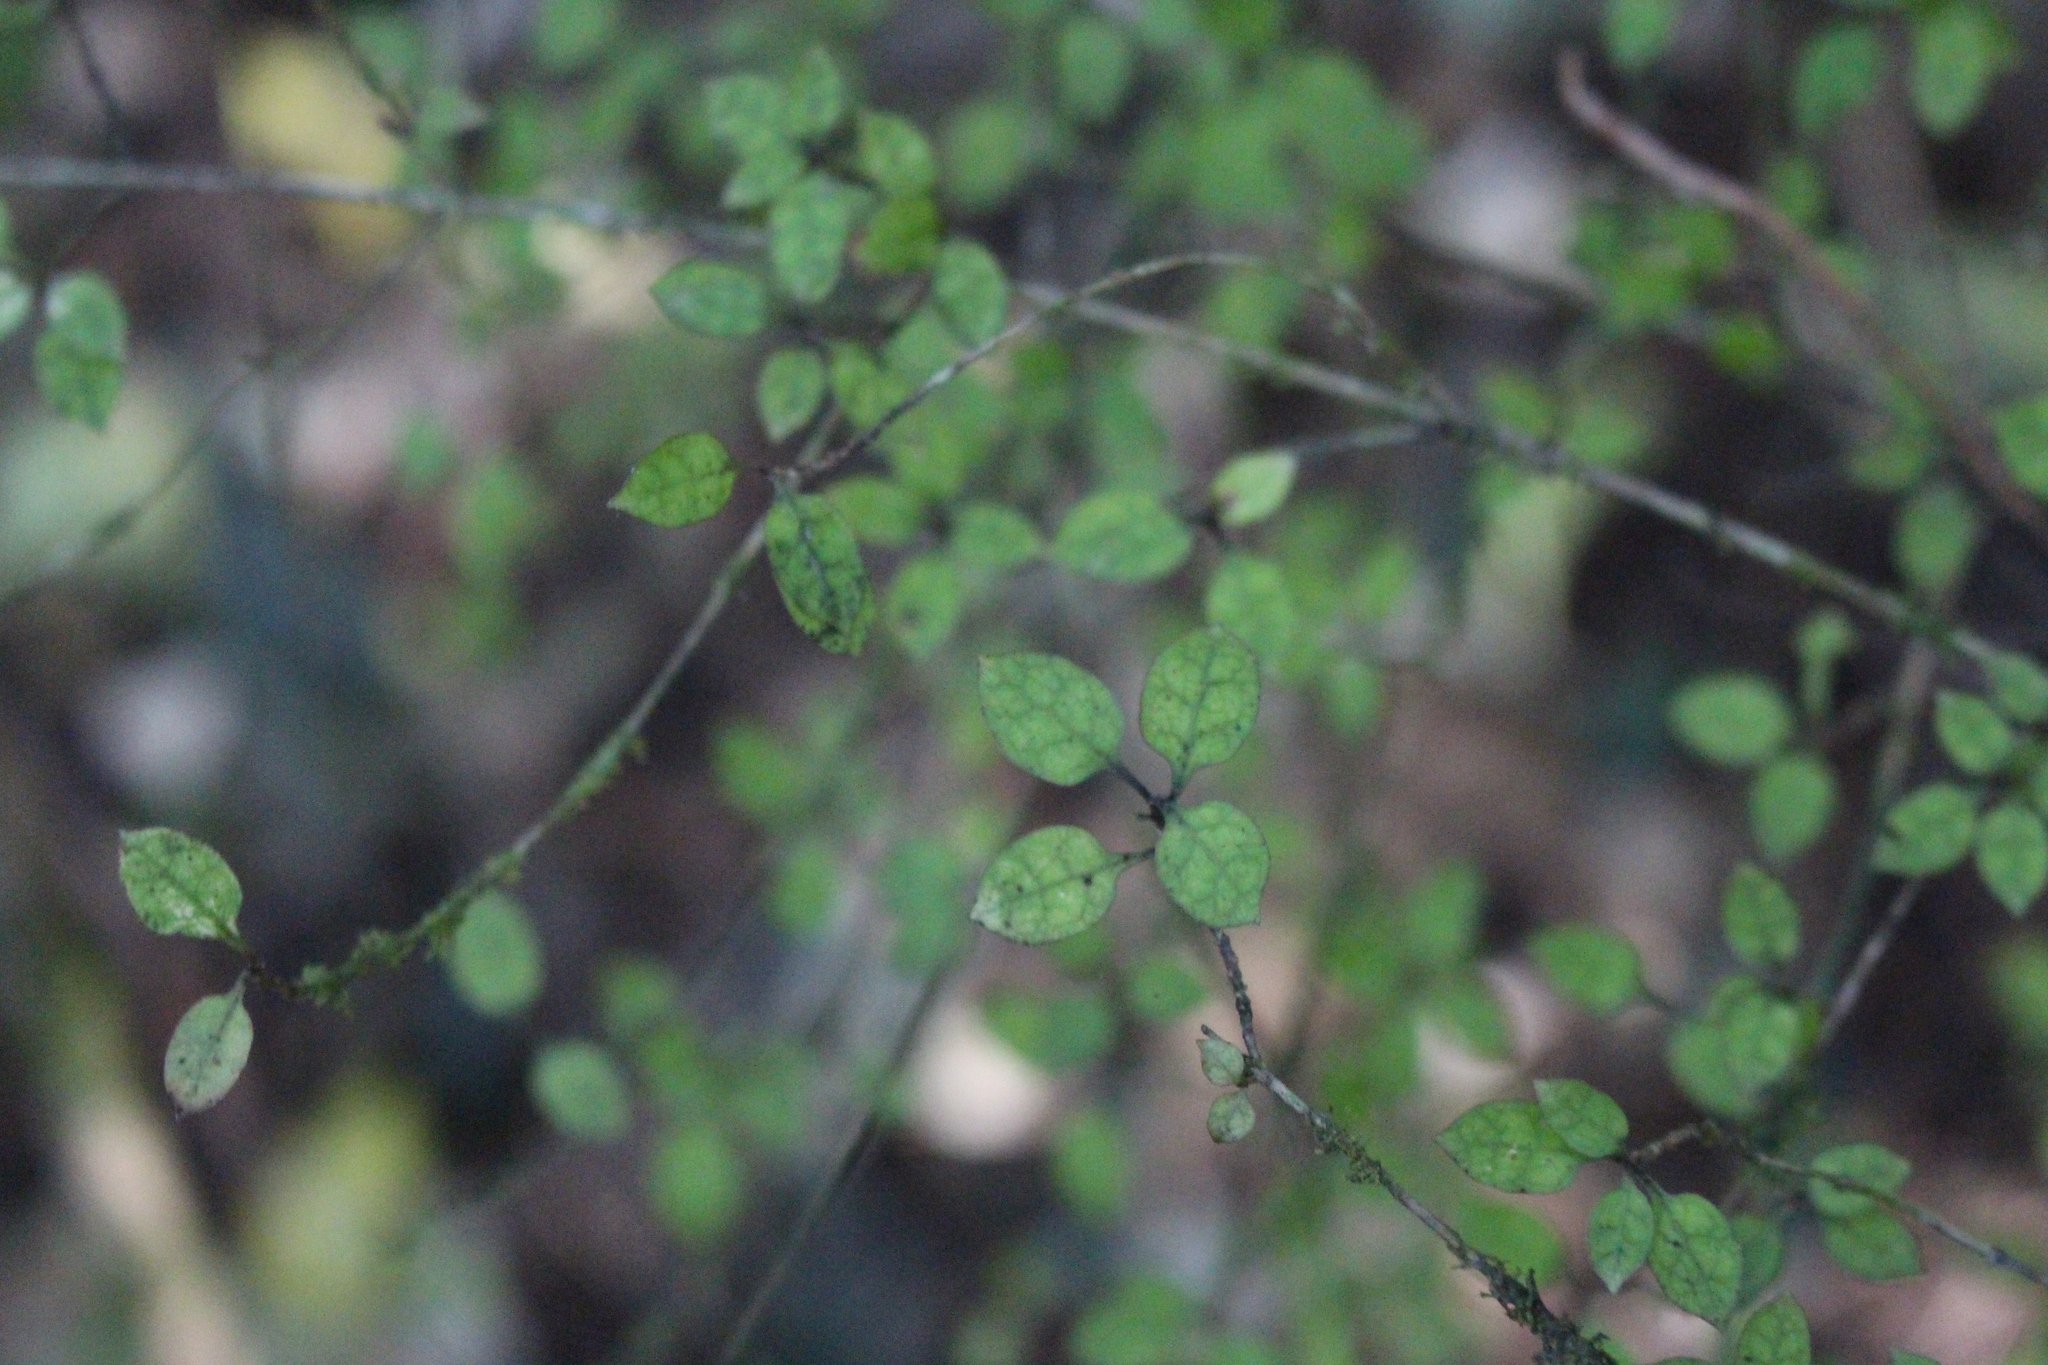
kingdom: Plantae
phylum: Tracheophyta
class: Magnoliopsida
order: Gentianales
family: Rubiaceae
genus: Coprosma
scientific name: Coprosma areolata
